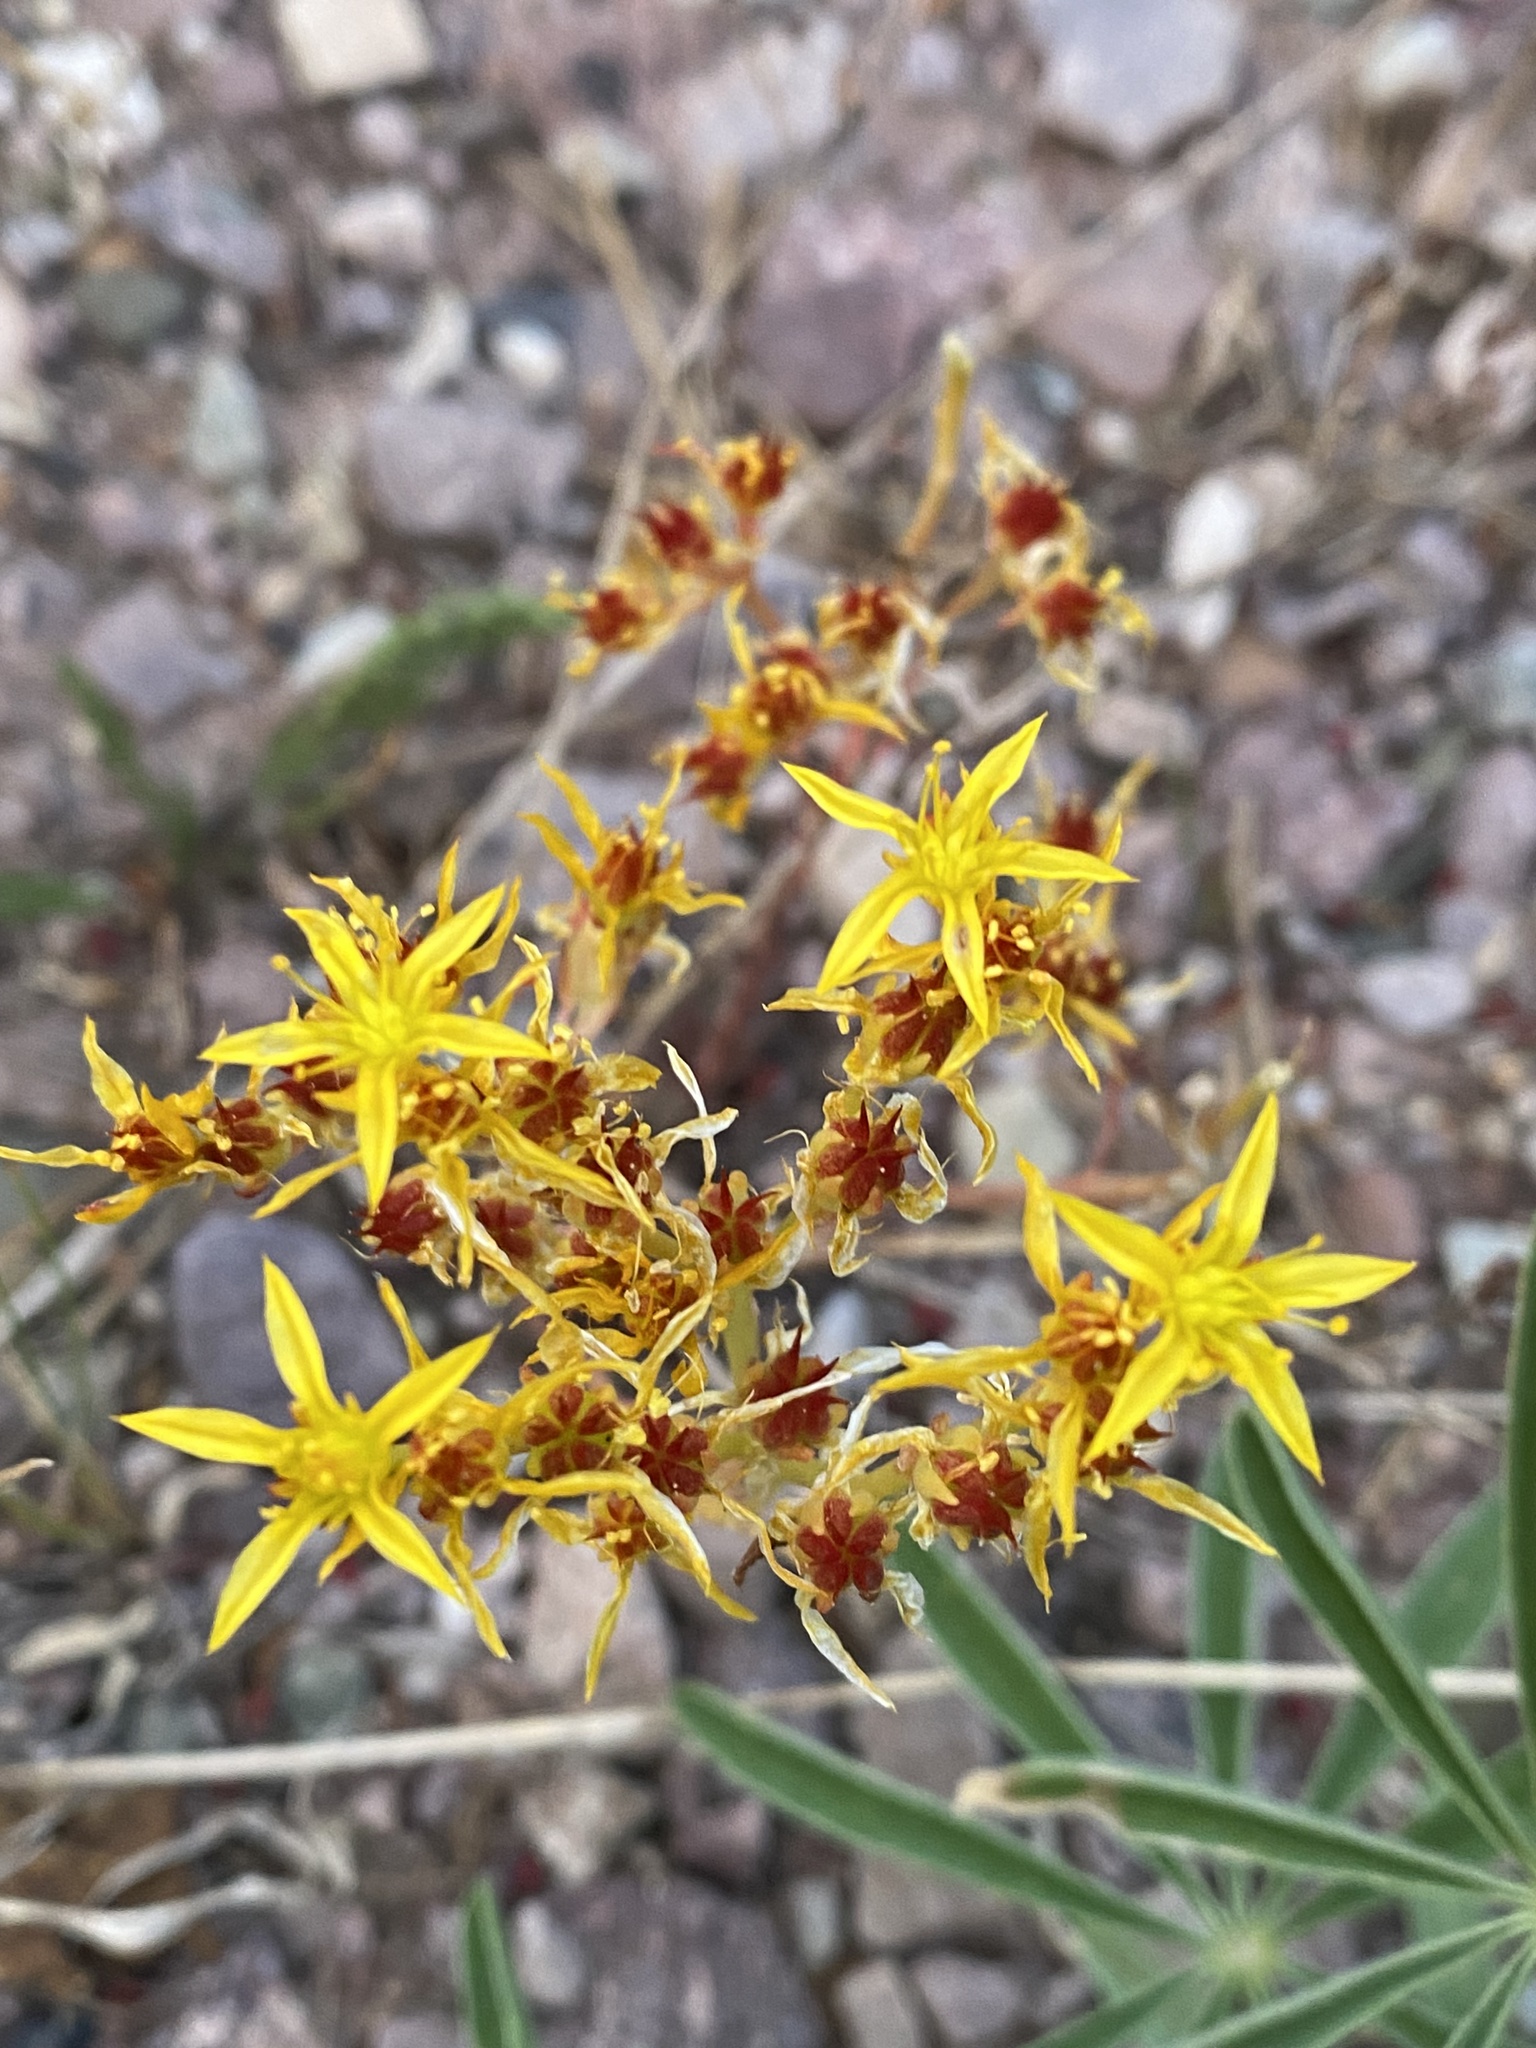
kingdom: Plantae
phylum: Tracheophyta
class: Magnoliopsida
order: Saxifragales
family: Crassulaceae
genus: Sedum
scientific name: Sedum lanceolatum
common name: Common stonecrop
